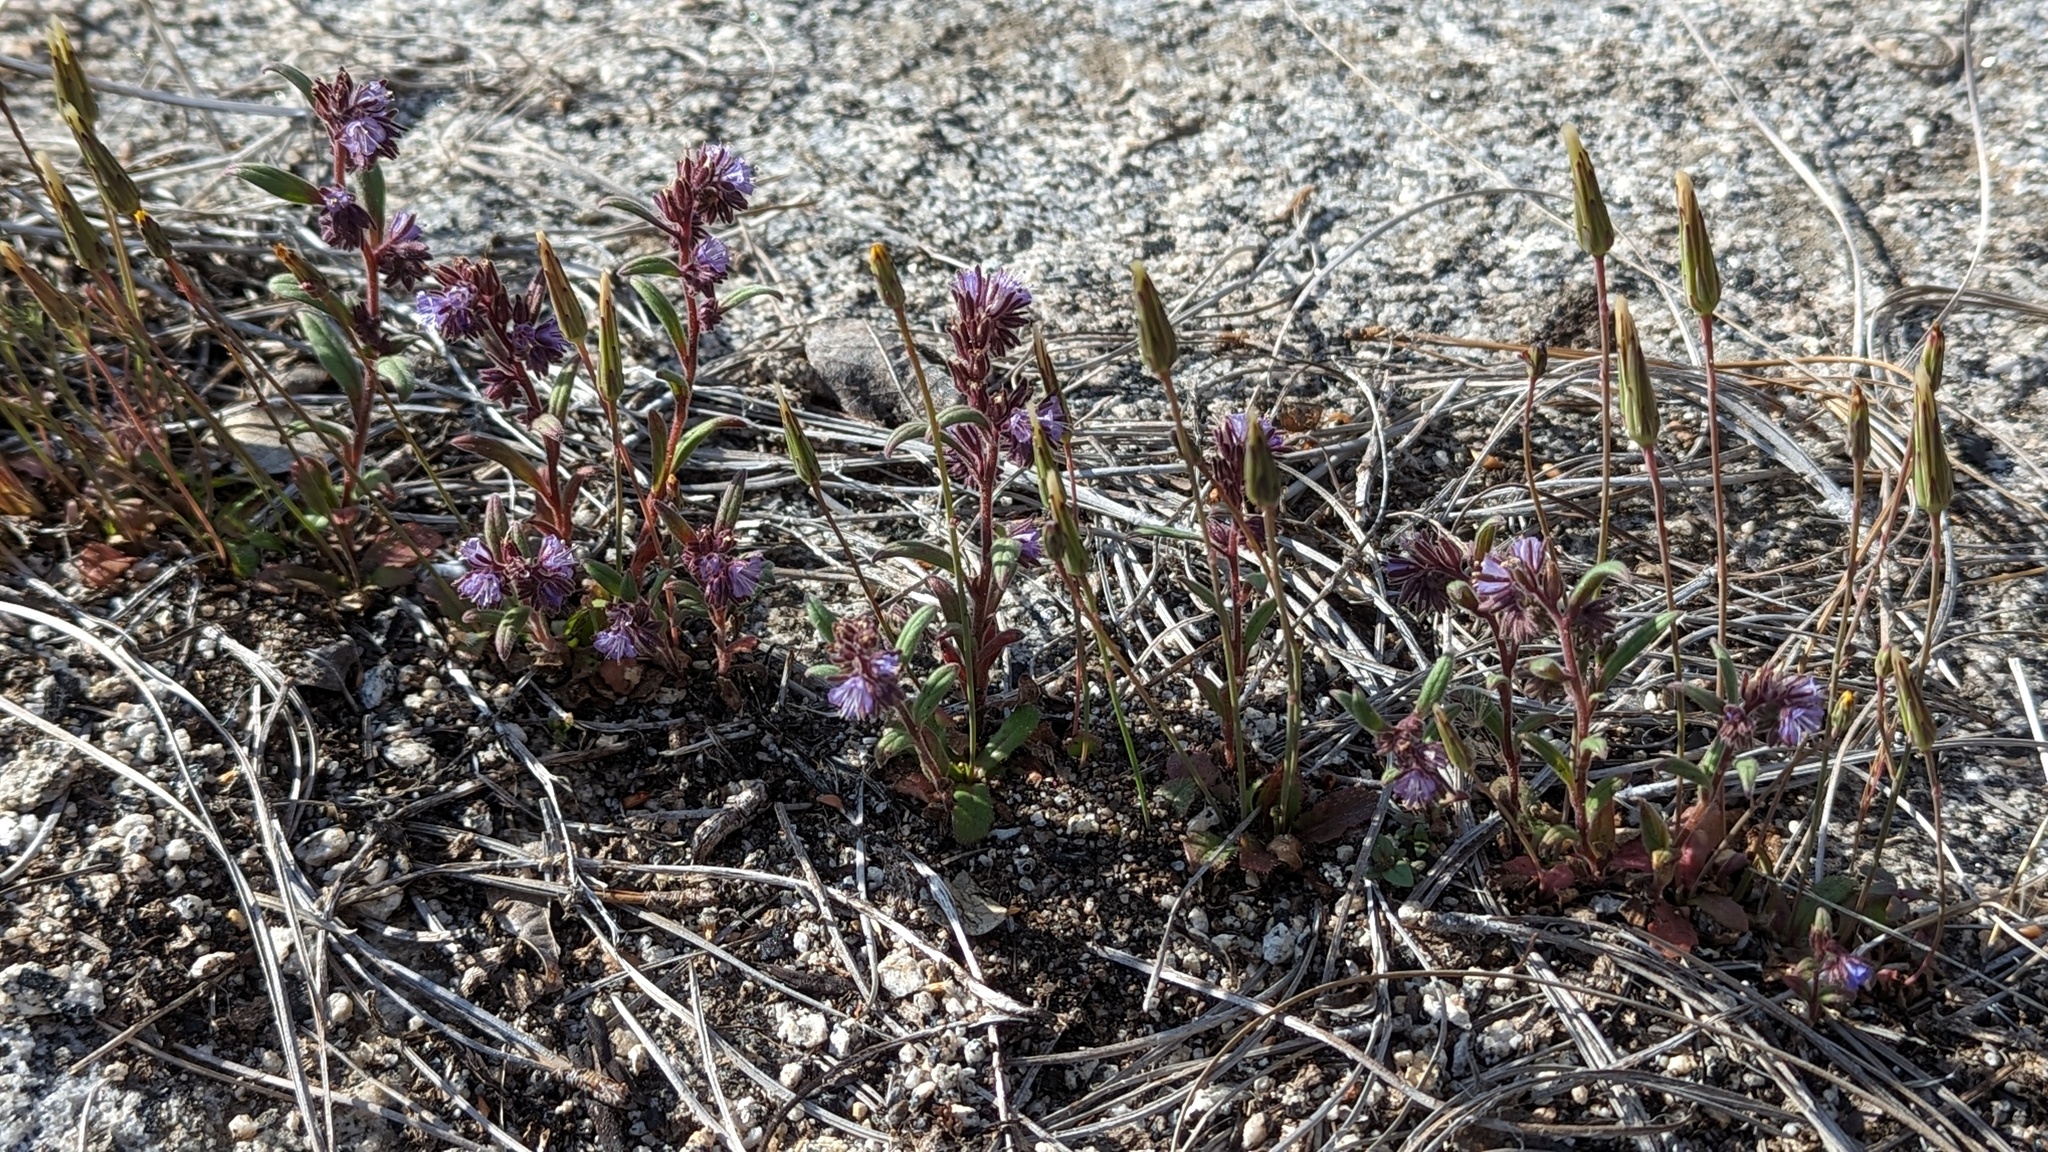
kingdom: Plantae
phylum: Tracheophyta
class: Magnoliopsida
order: Boraginales
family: Hydrophyllaceae
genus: Phacelia
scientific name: Phacelia quickii
